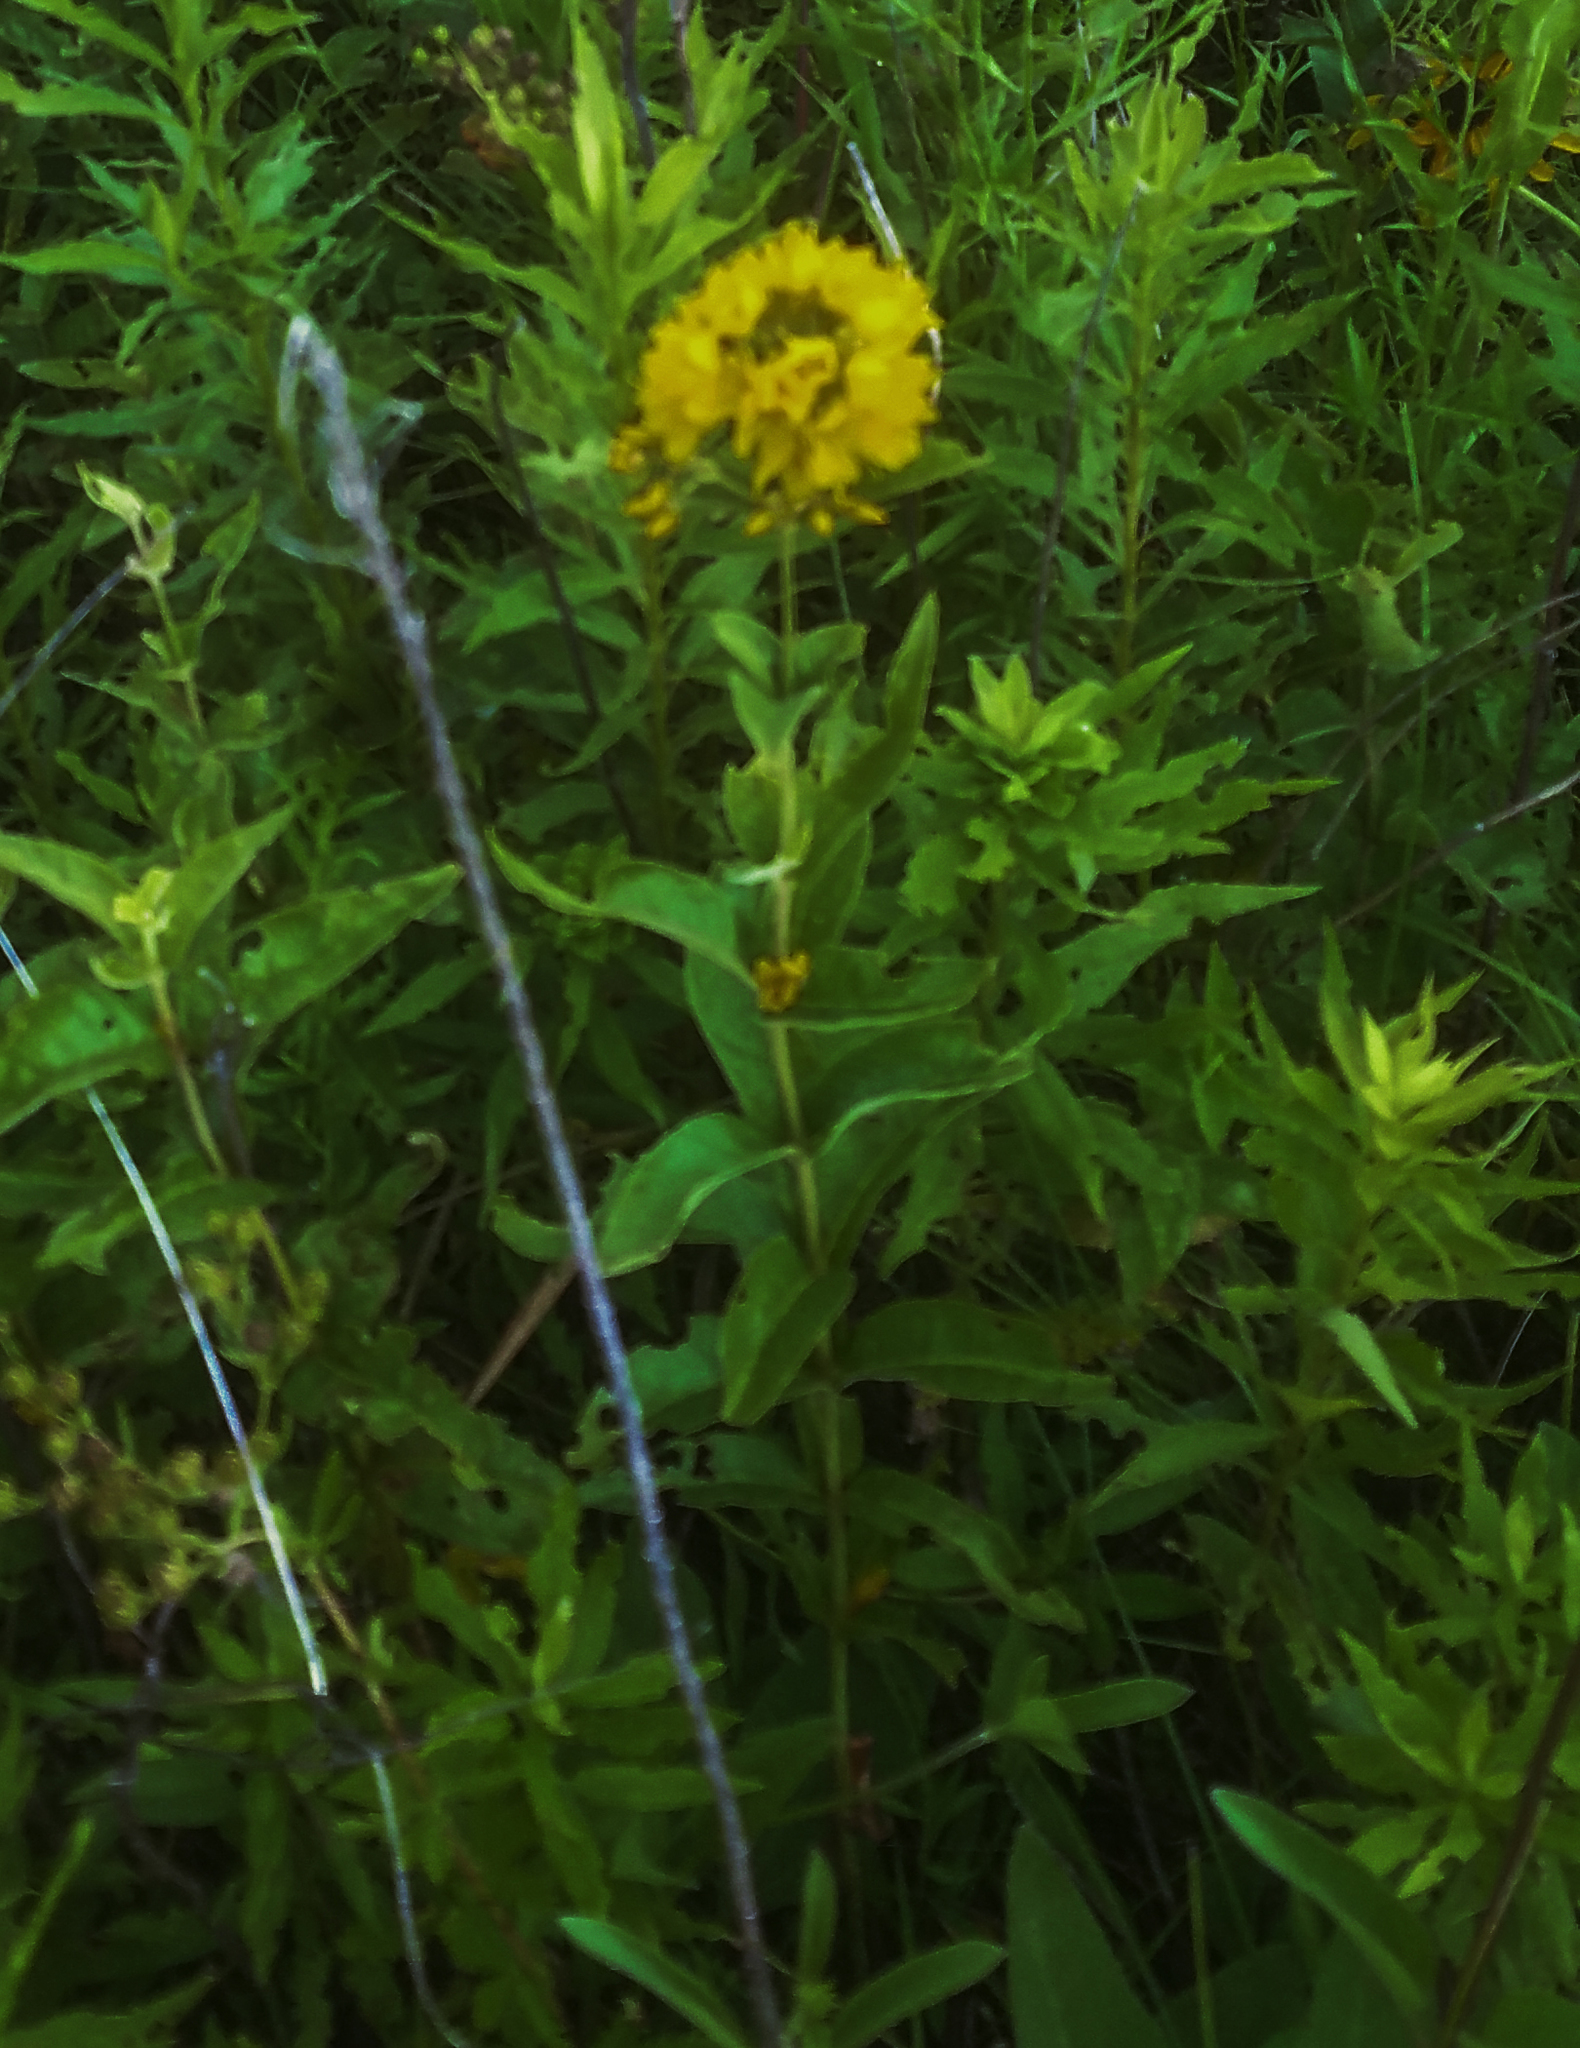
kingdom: Plantae
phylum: Tracheophyta
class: Magnoliopsida
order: Ericales
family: Primulaceae
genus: Lysimachia
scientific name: Lysimachia vulgaris
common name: Yellow loosestrife
